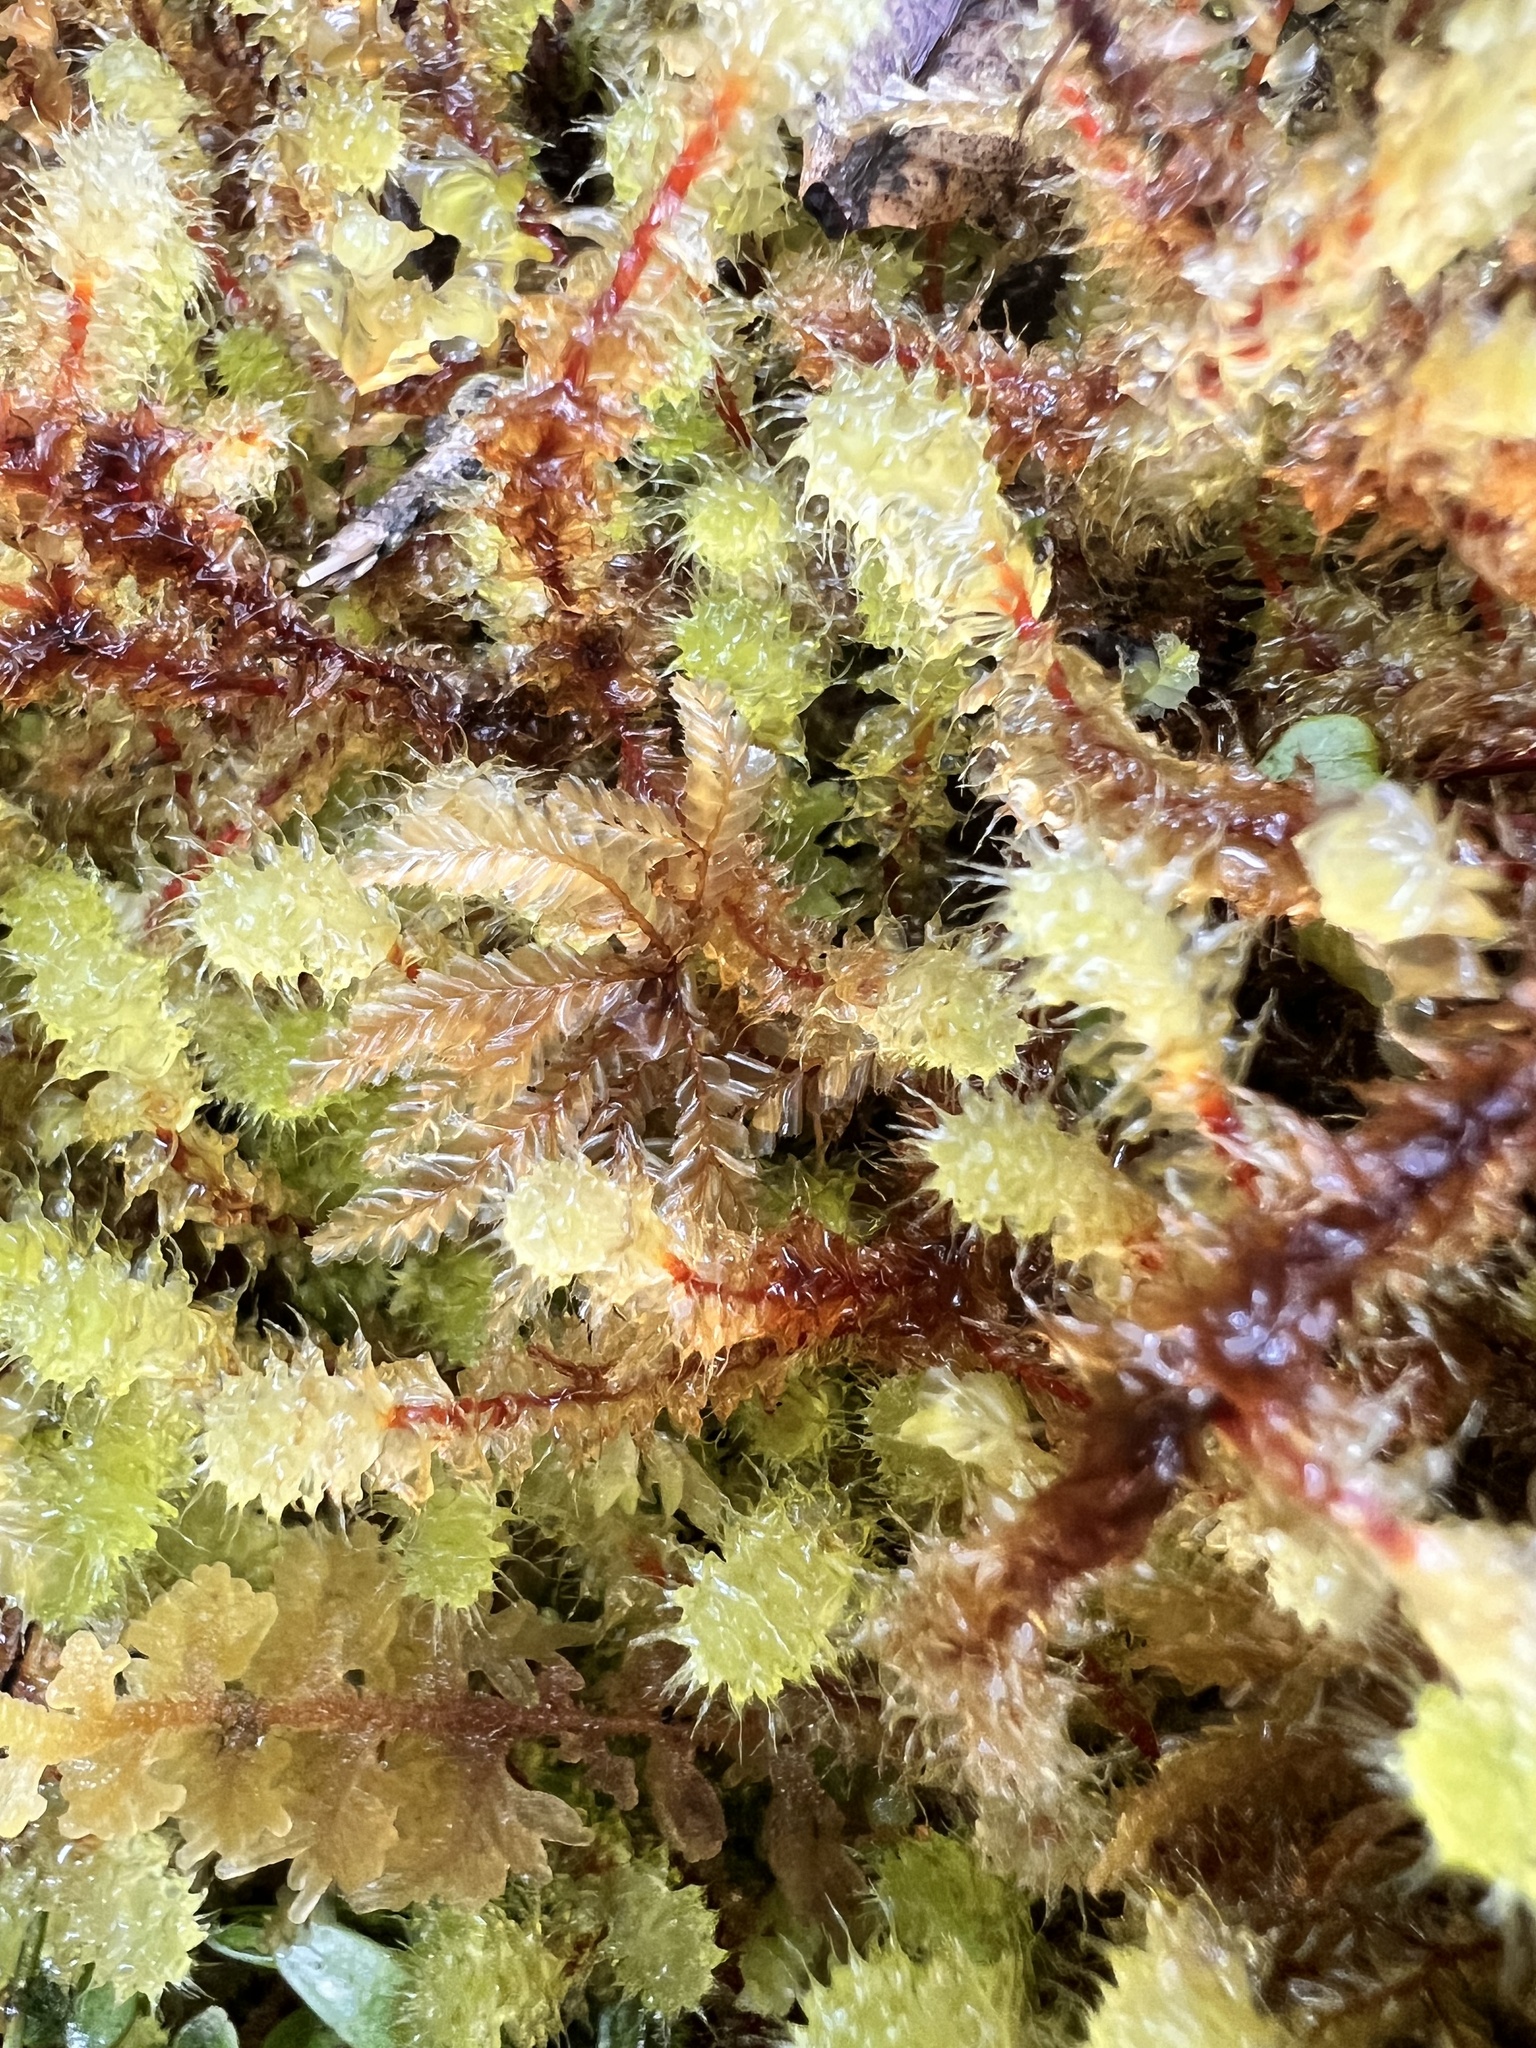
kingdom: Plantae
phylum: Bryophyta
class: Bryopsida
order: Ptychomniales
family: Ptychomniaceae
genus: Ptychomnion
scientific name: Ptychomnion aciculare
